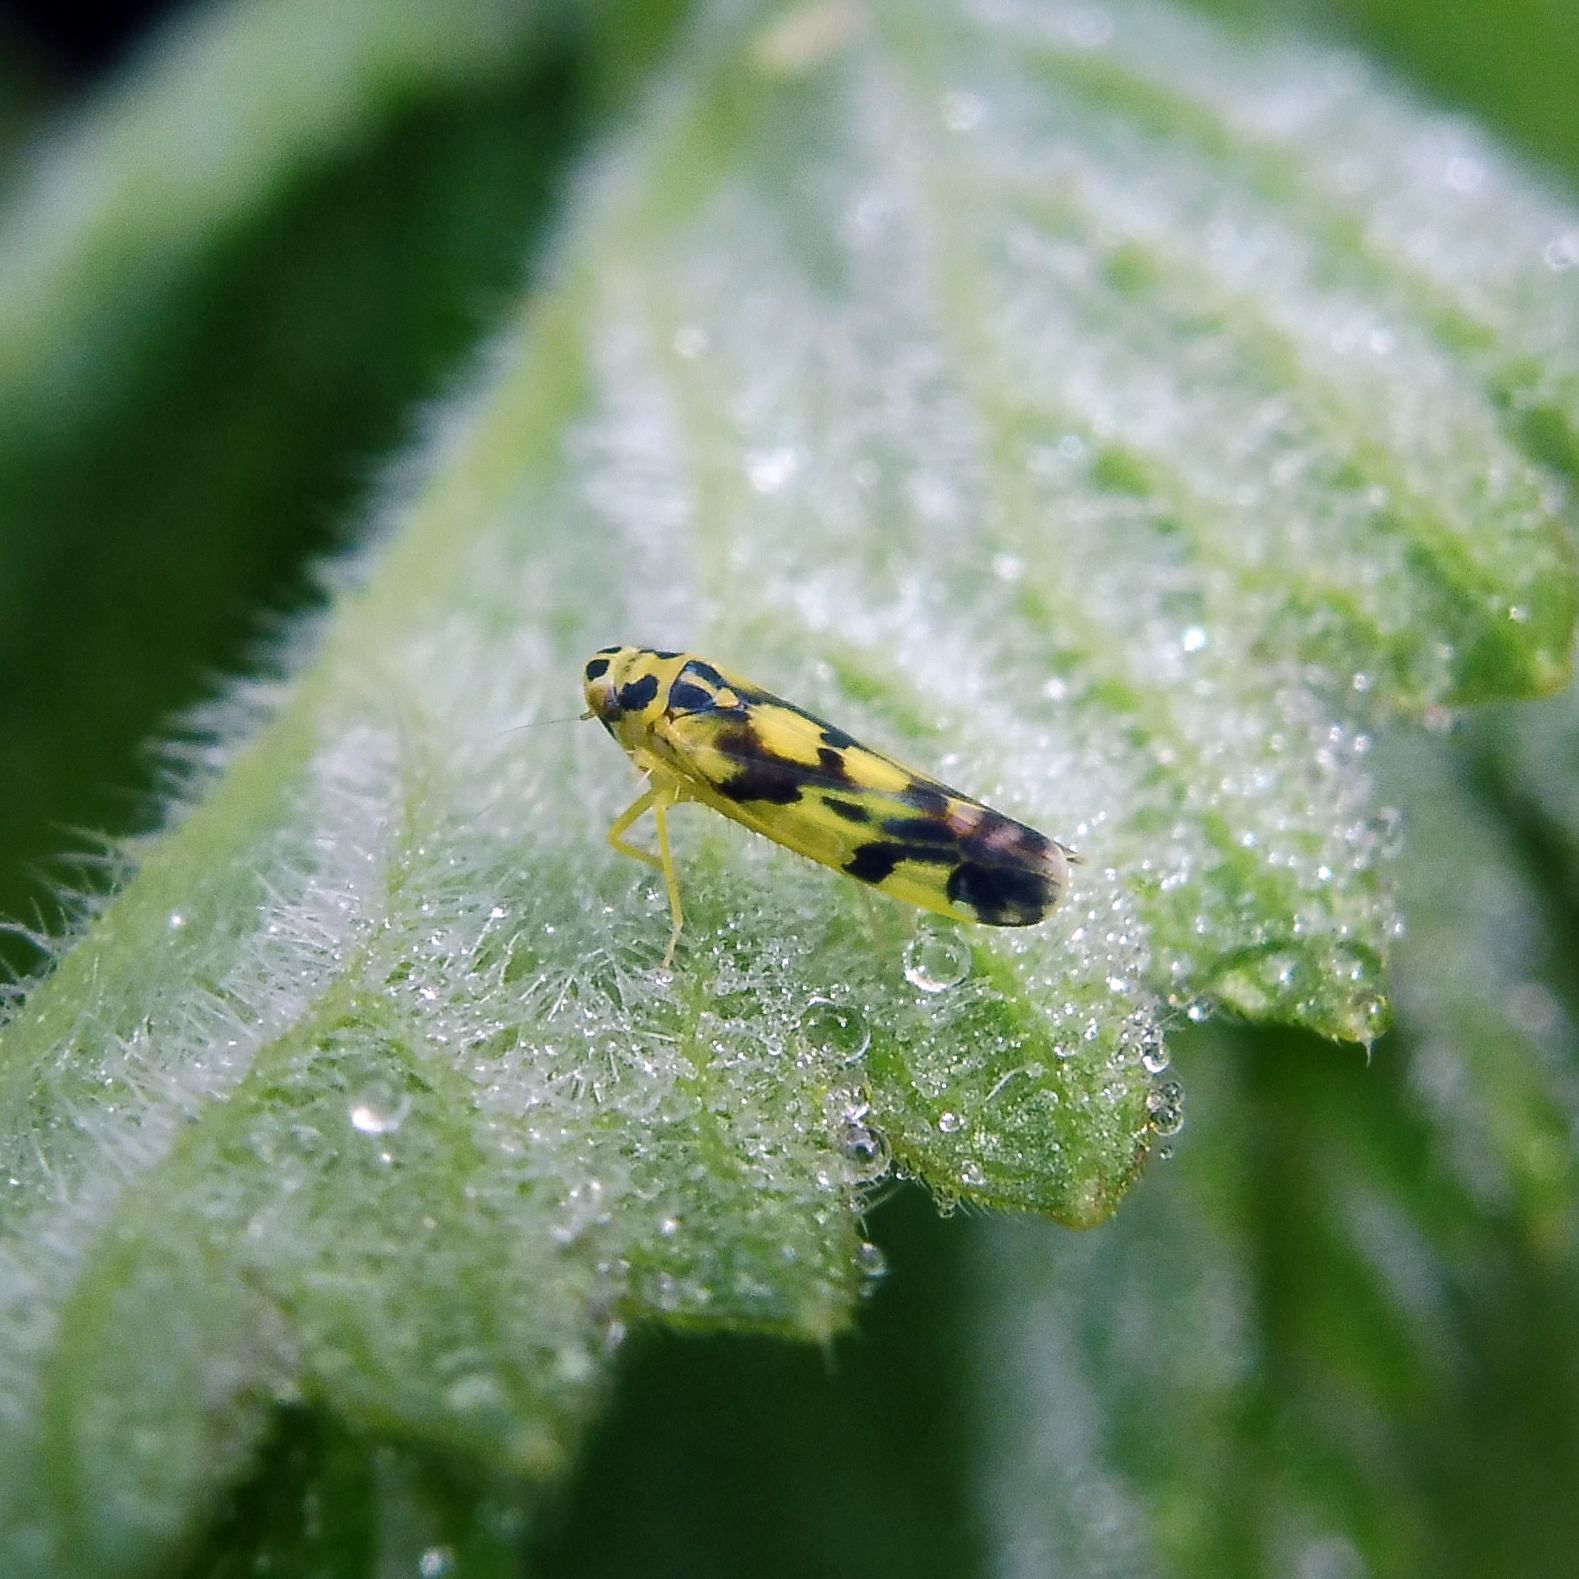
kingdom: Animalia
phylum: Arthropoda
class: Insecta
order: Hemiptera
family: Cicadellidae
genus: Eupteryx
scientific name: Eupteryx aurata
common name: Leafhopper
